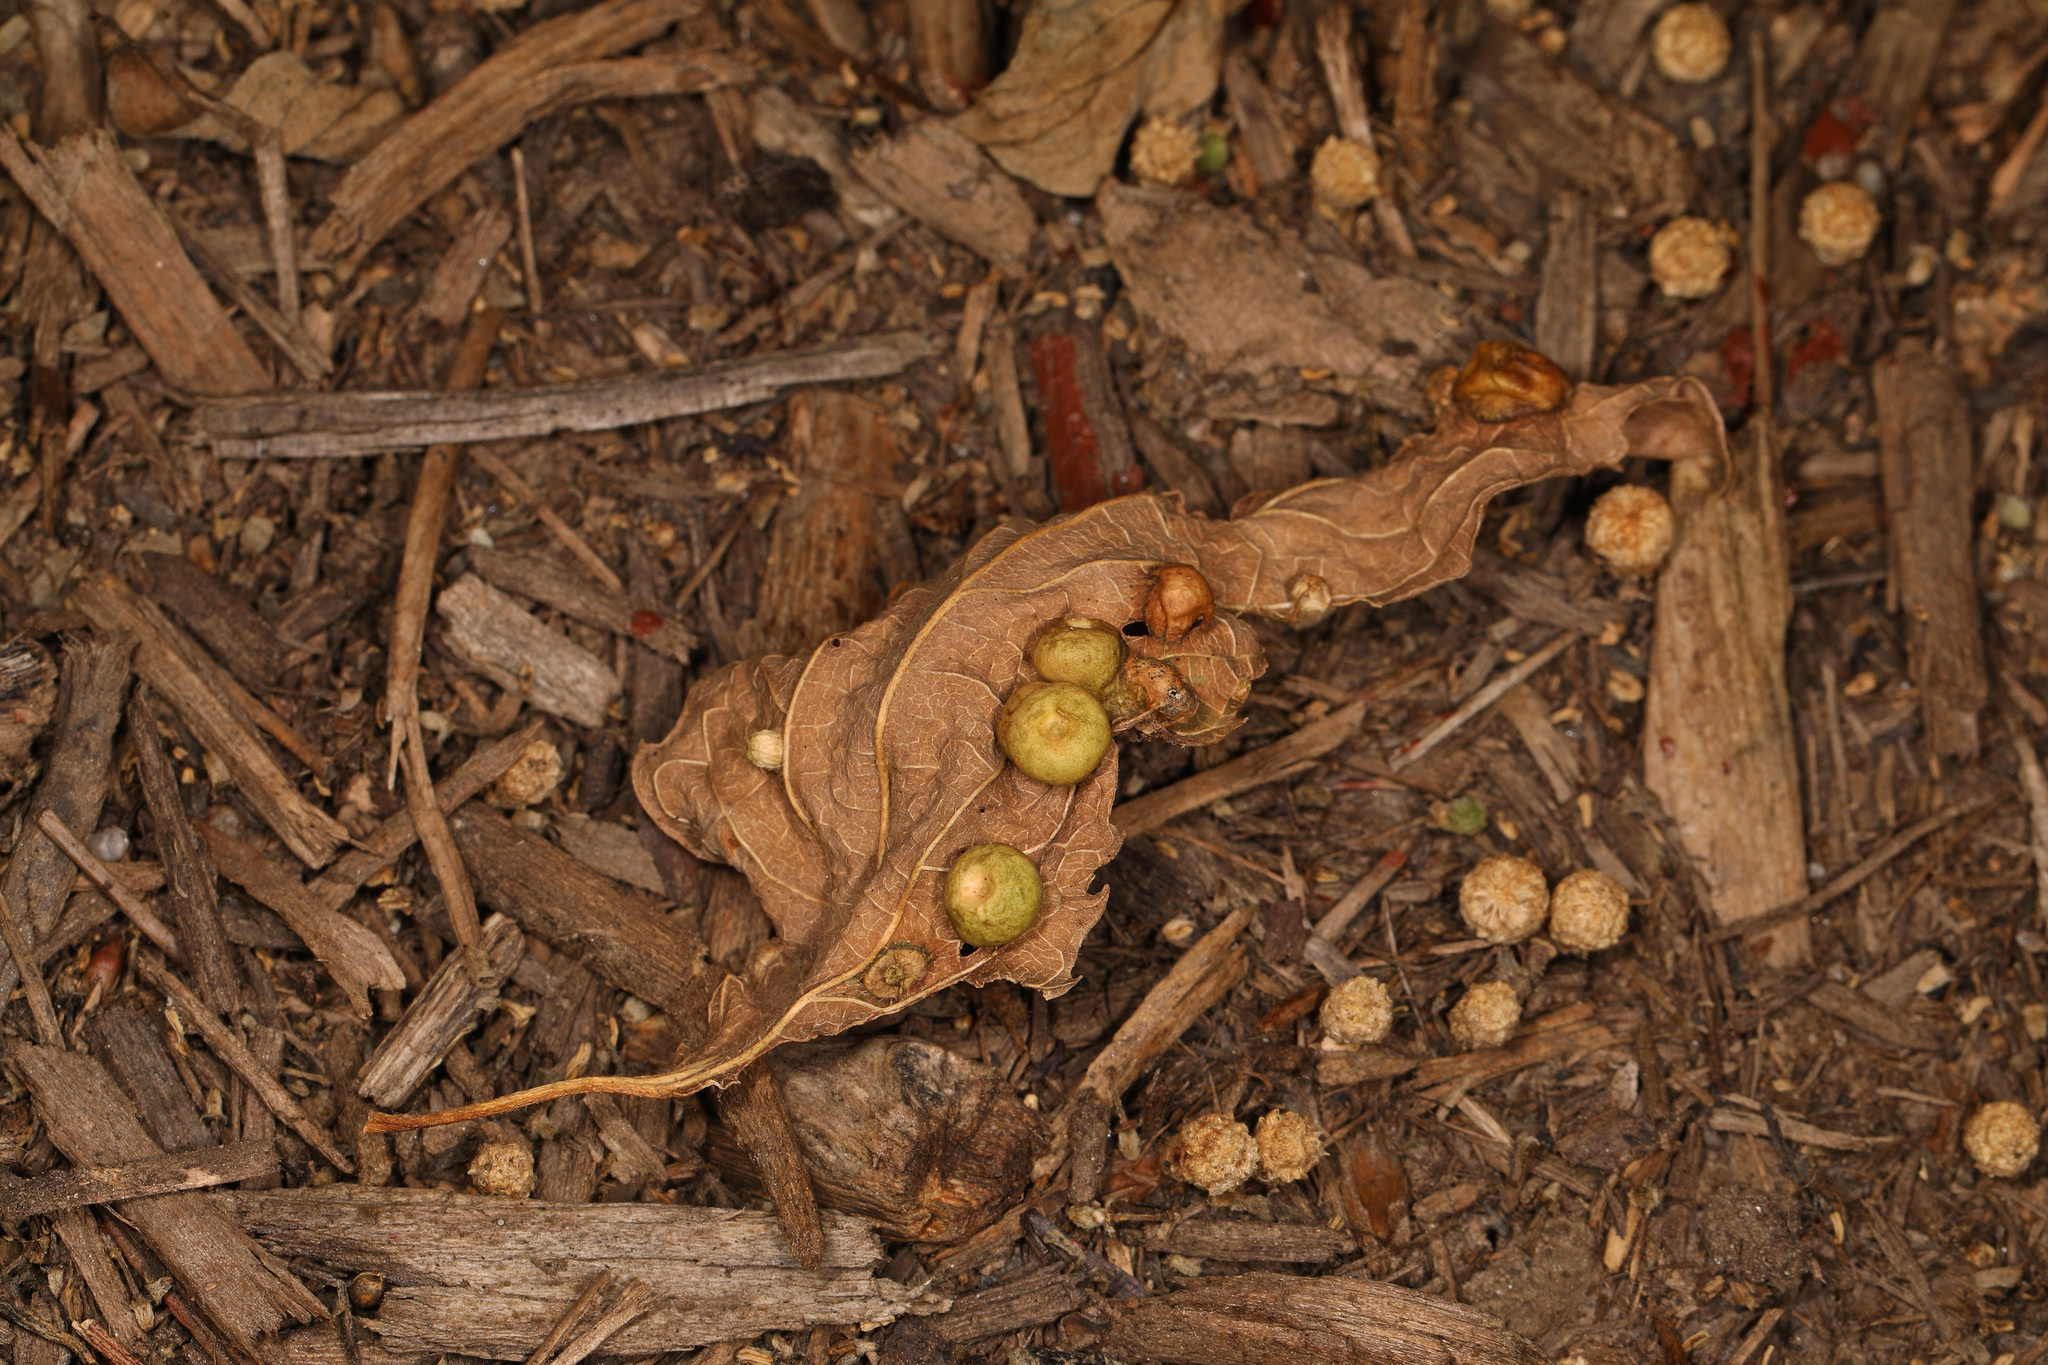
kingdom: Animalia
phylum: Arthropoda
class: Insecta
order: Hemiptera
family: Aphalaridae
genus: Pachypsylla
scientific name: Pachypsylla celtidismamma
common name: Hackberry nipplegall psyllid
